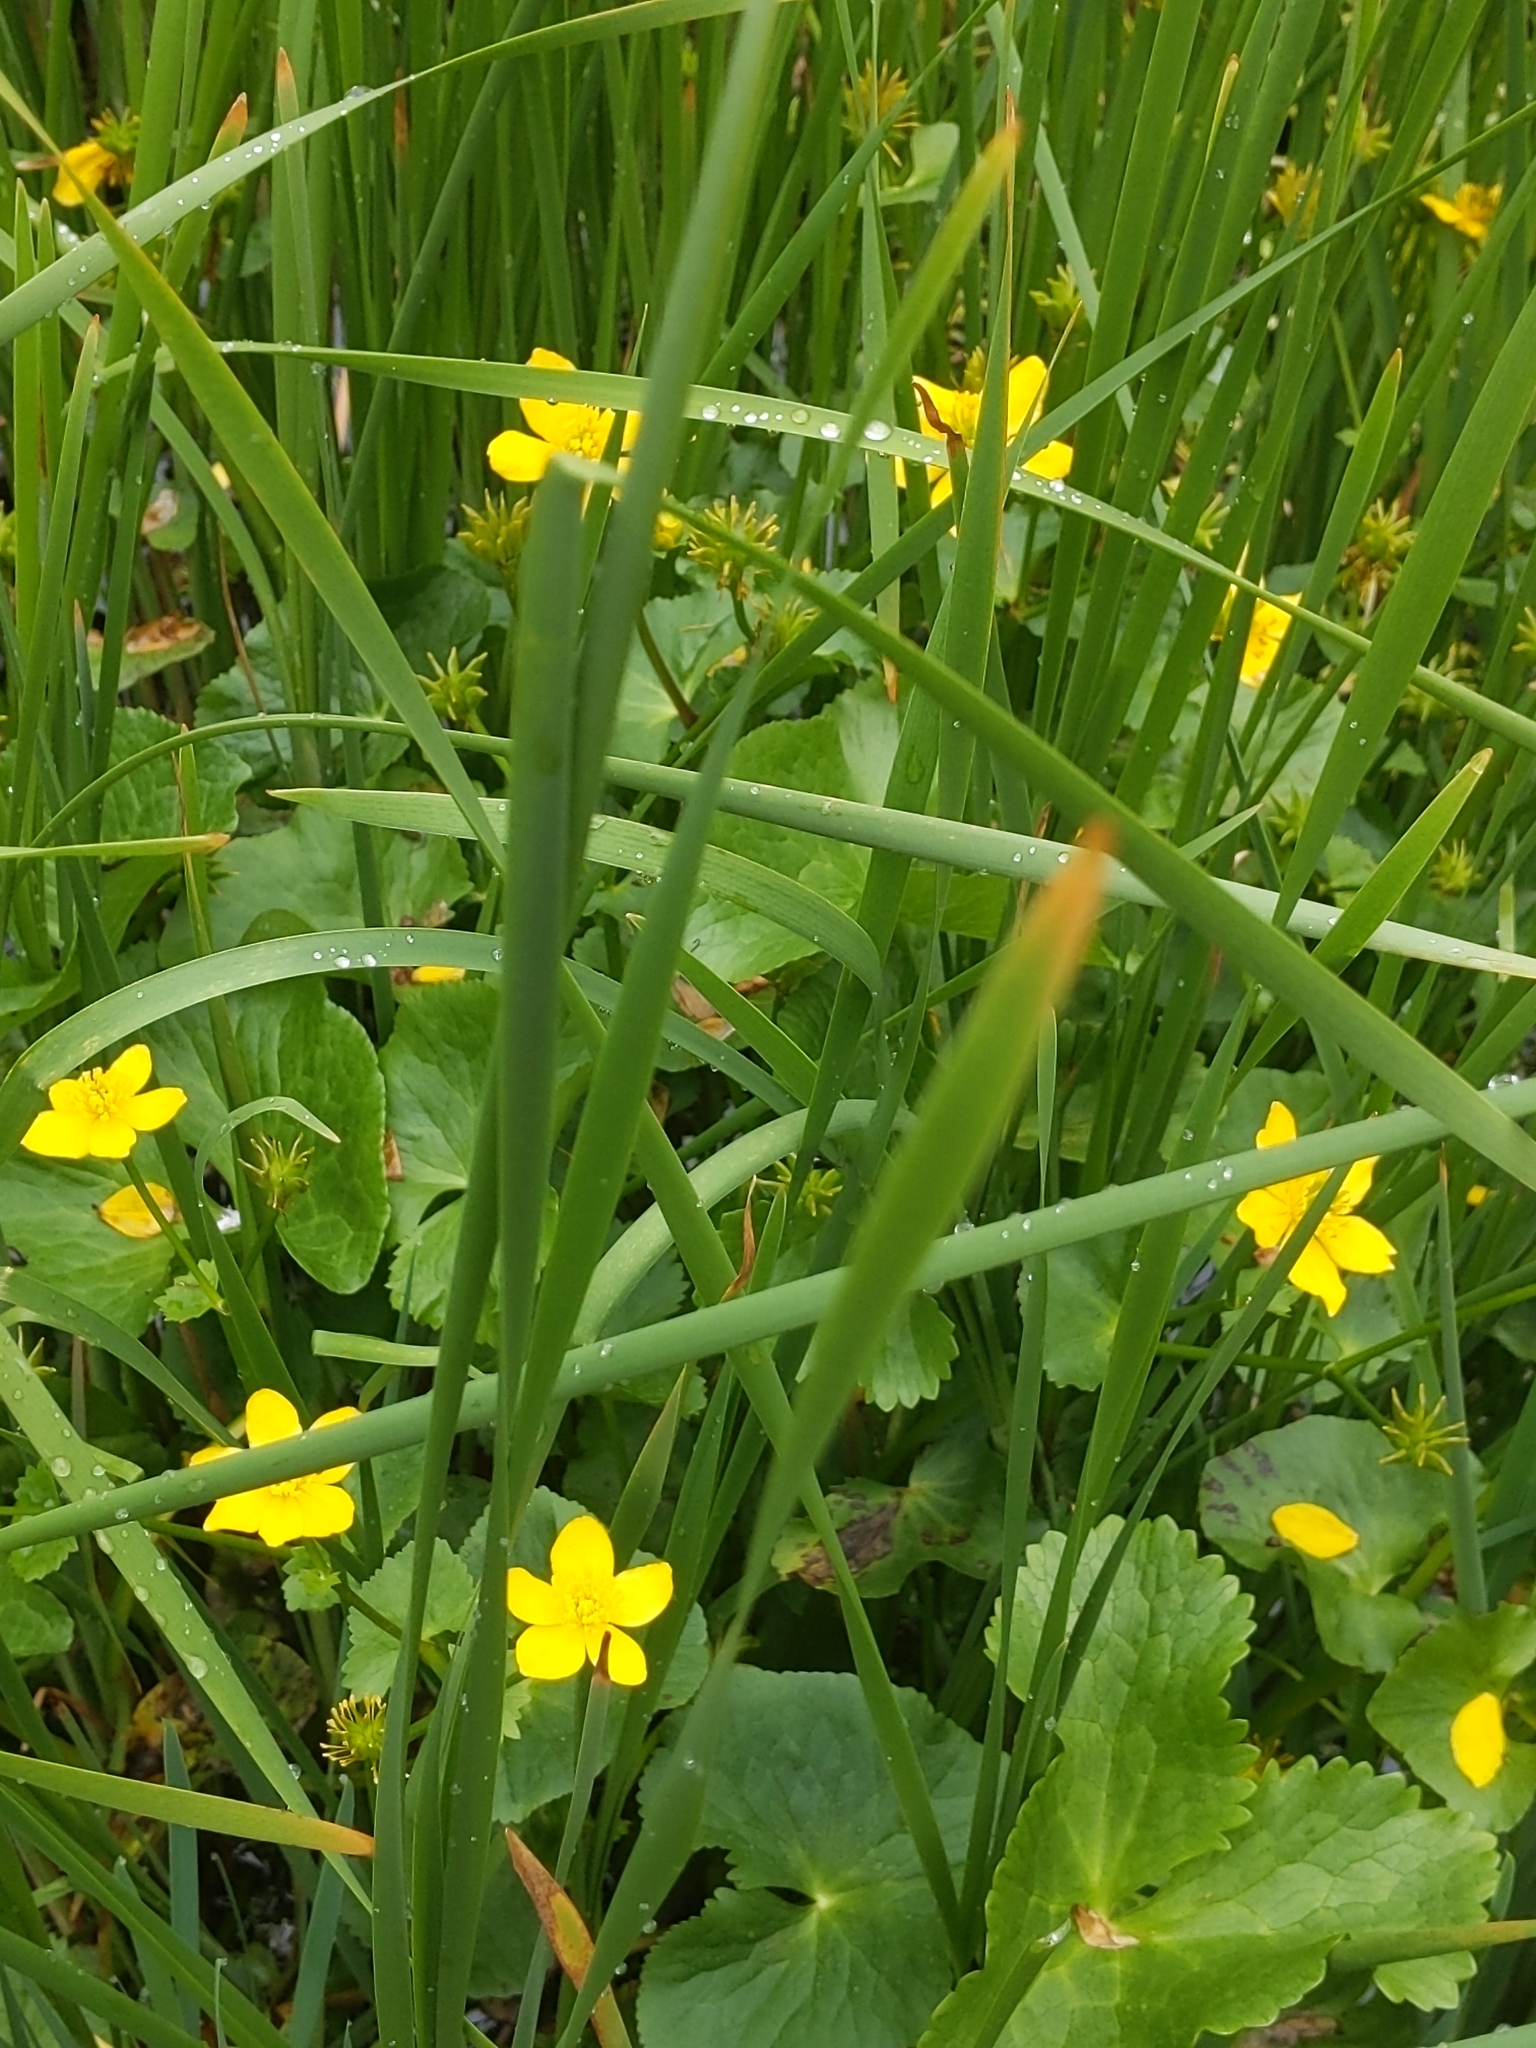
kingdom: Plantae
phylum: Tracheophyta
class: Magnoliopsida
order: Ranunculales
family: Ranunculaceae
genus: Caltha
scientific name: Caltha palustris
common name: Marsh marigold
